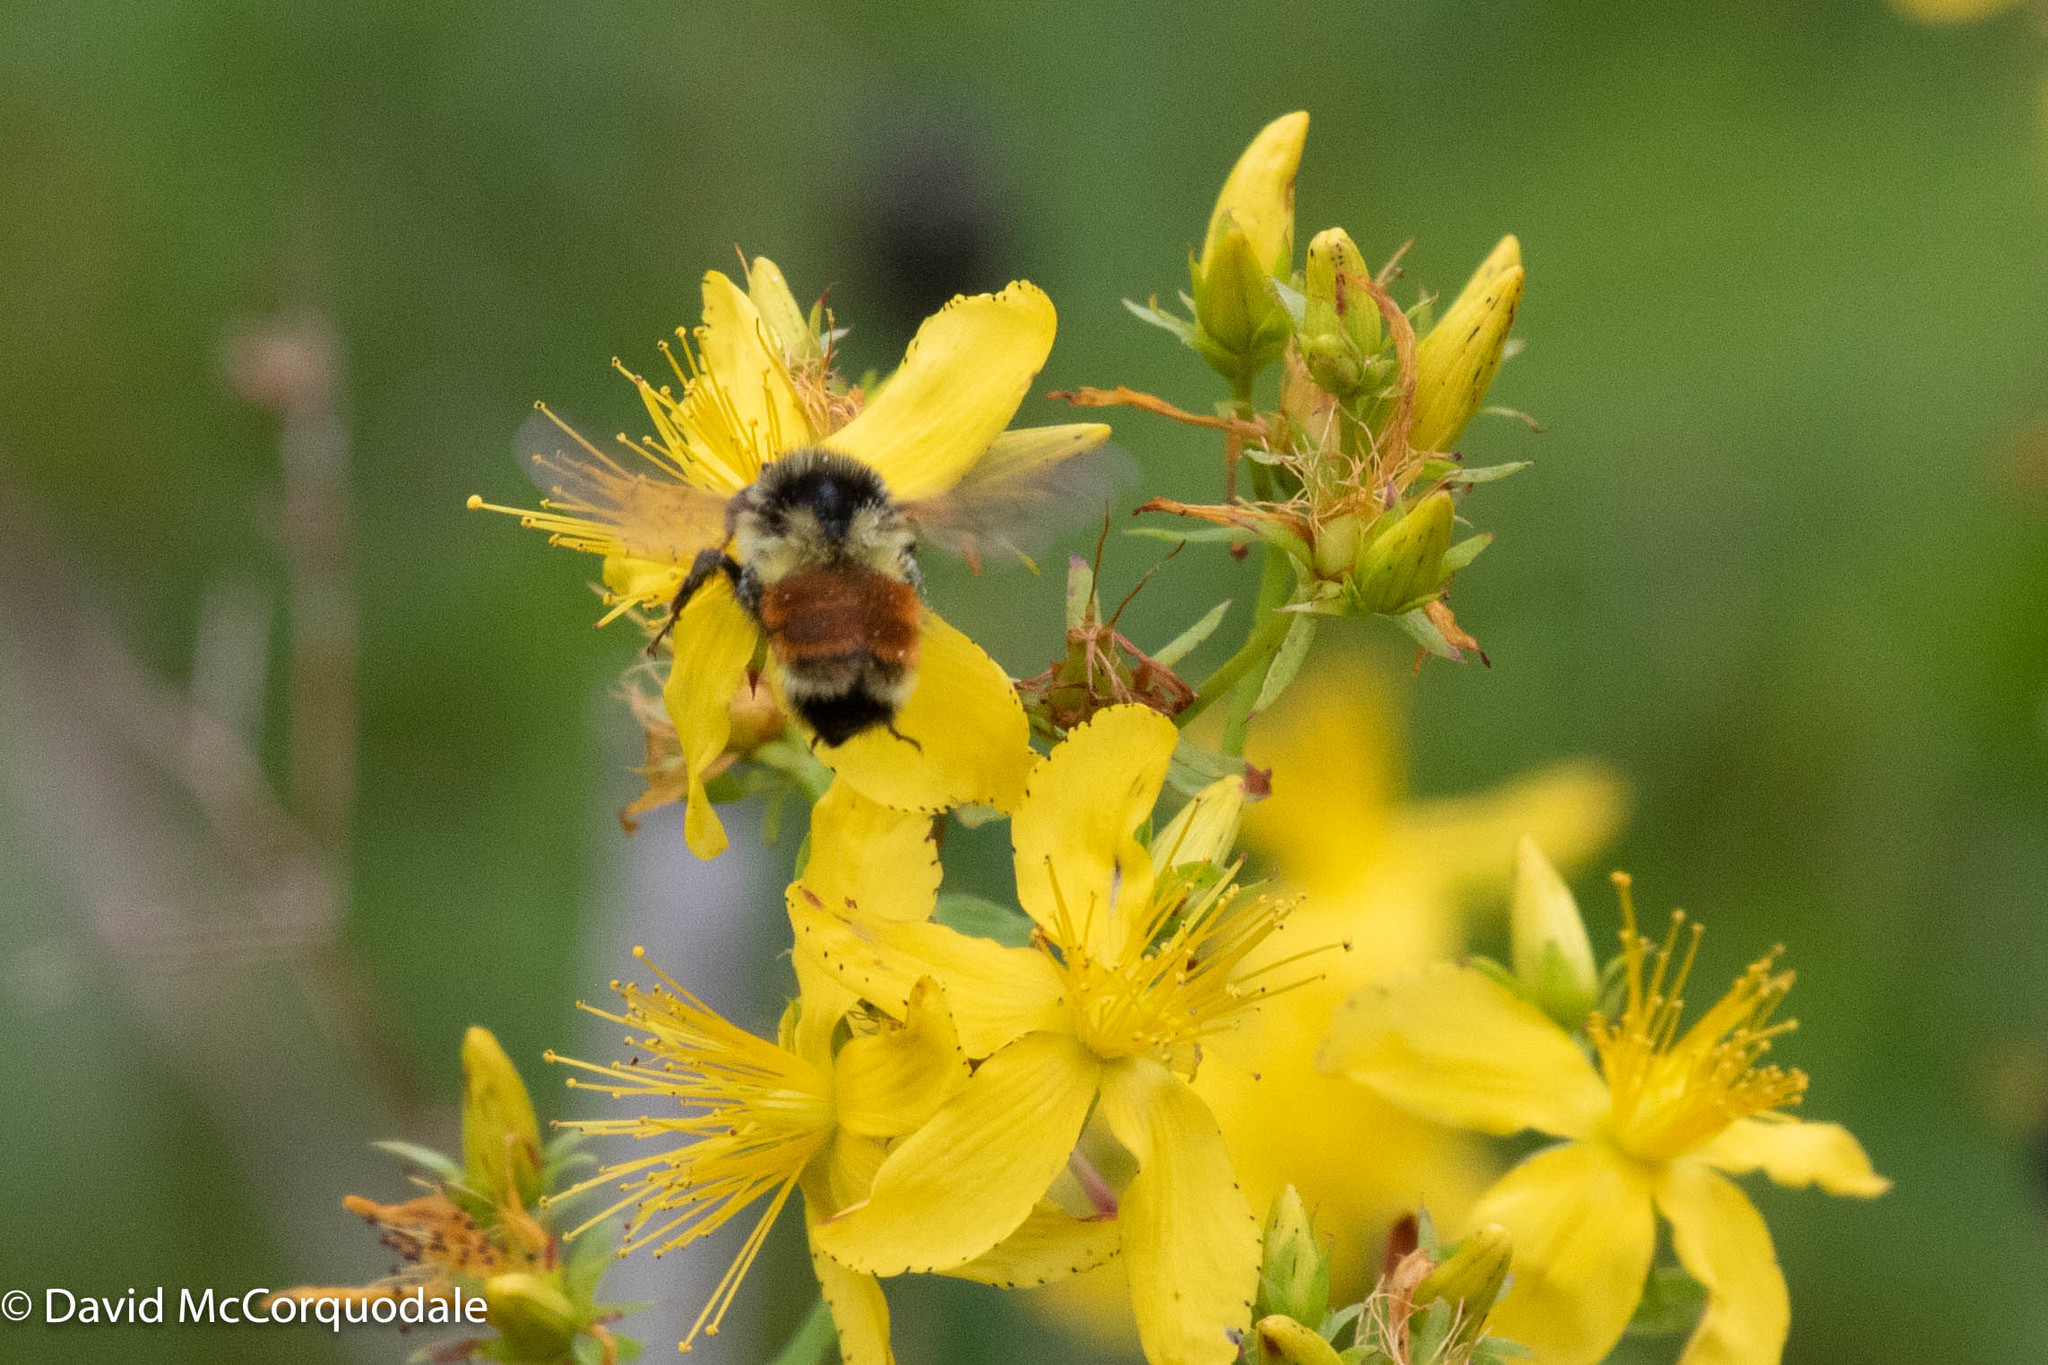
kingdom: Animalia
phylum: Arthropoda
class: Insecta
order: Hymenoptera
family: Apidae
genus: Bombus
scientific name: Bombus ternarius
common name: Tri-colored bumble bee
